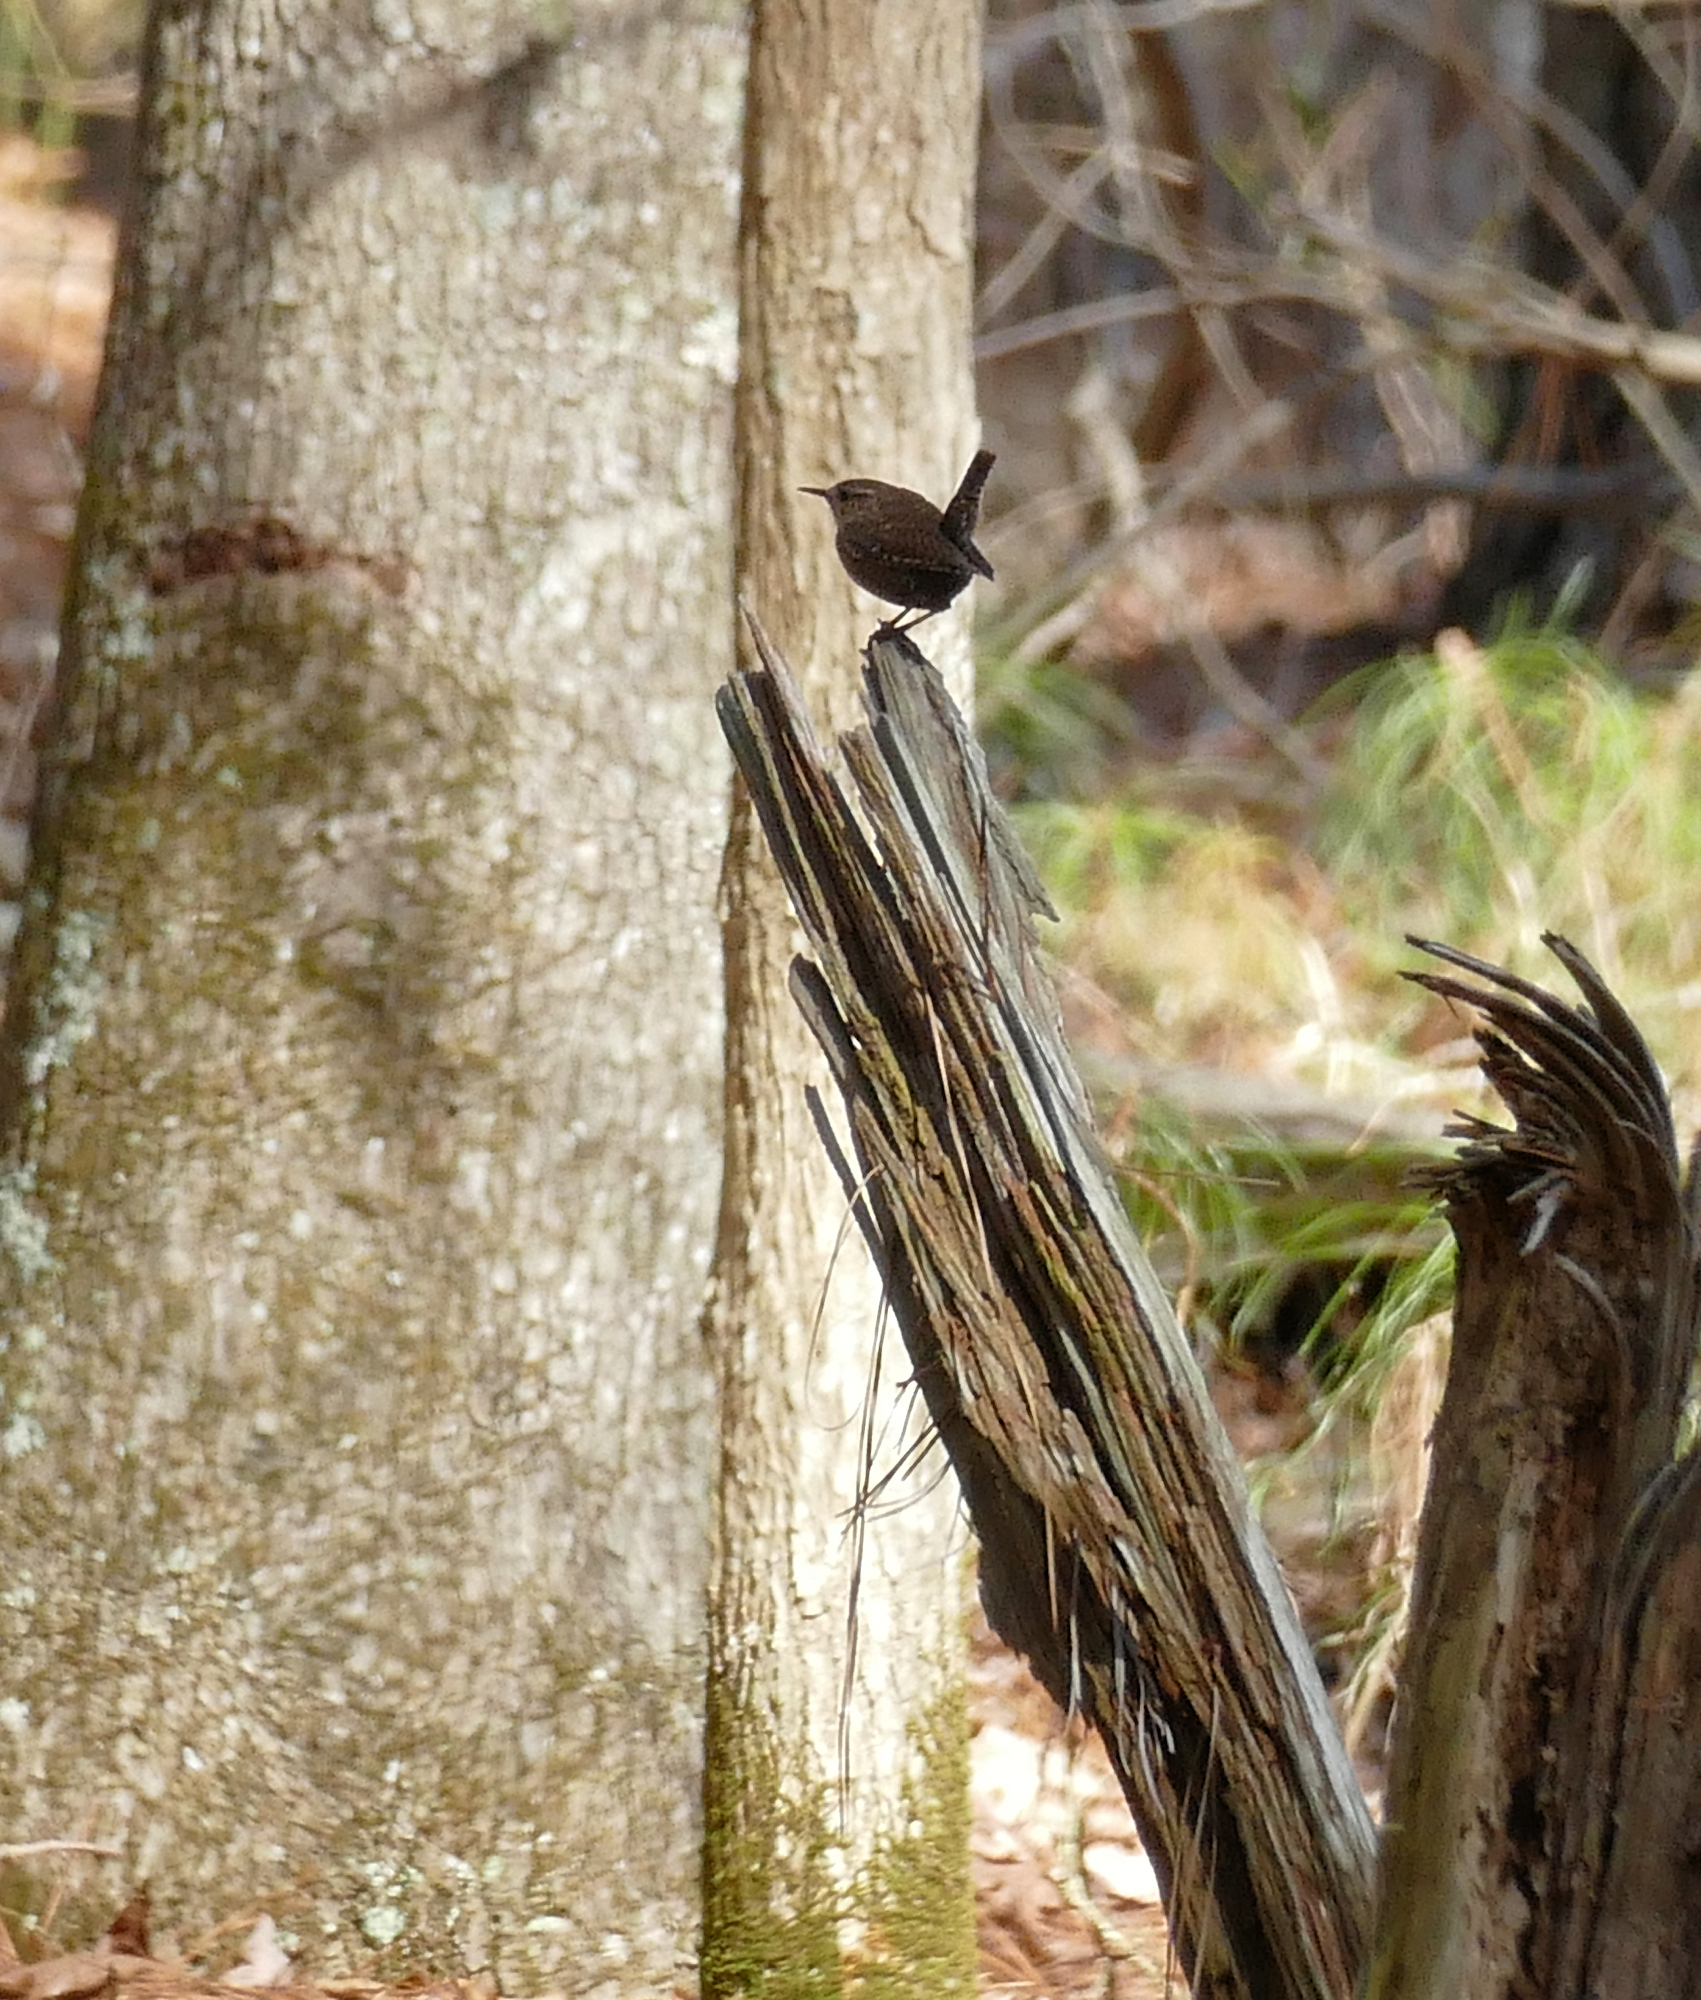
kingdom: Animalia
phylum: Chordata
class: Aves
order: Passeriformes
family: Troglodytidae
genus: Troglodytes
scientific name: Troglodytes hiemalis
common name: Winter wren
